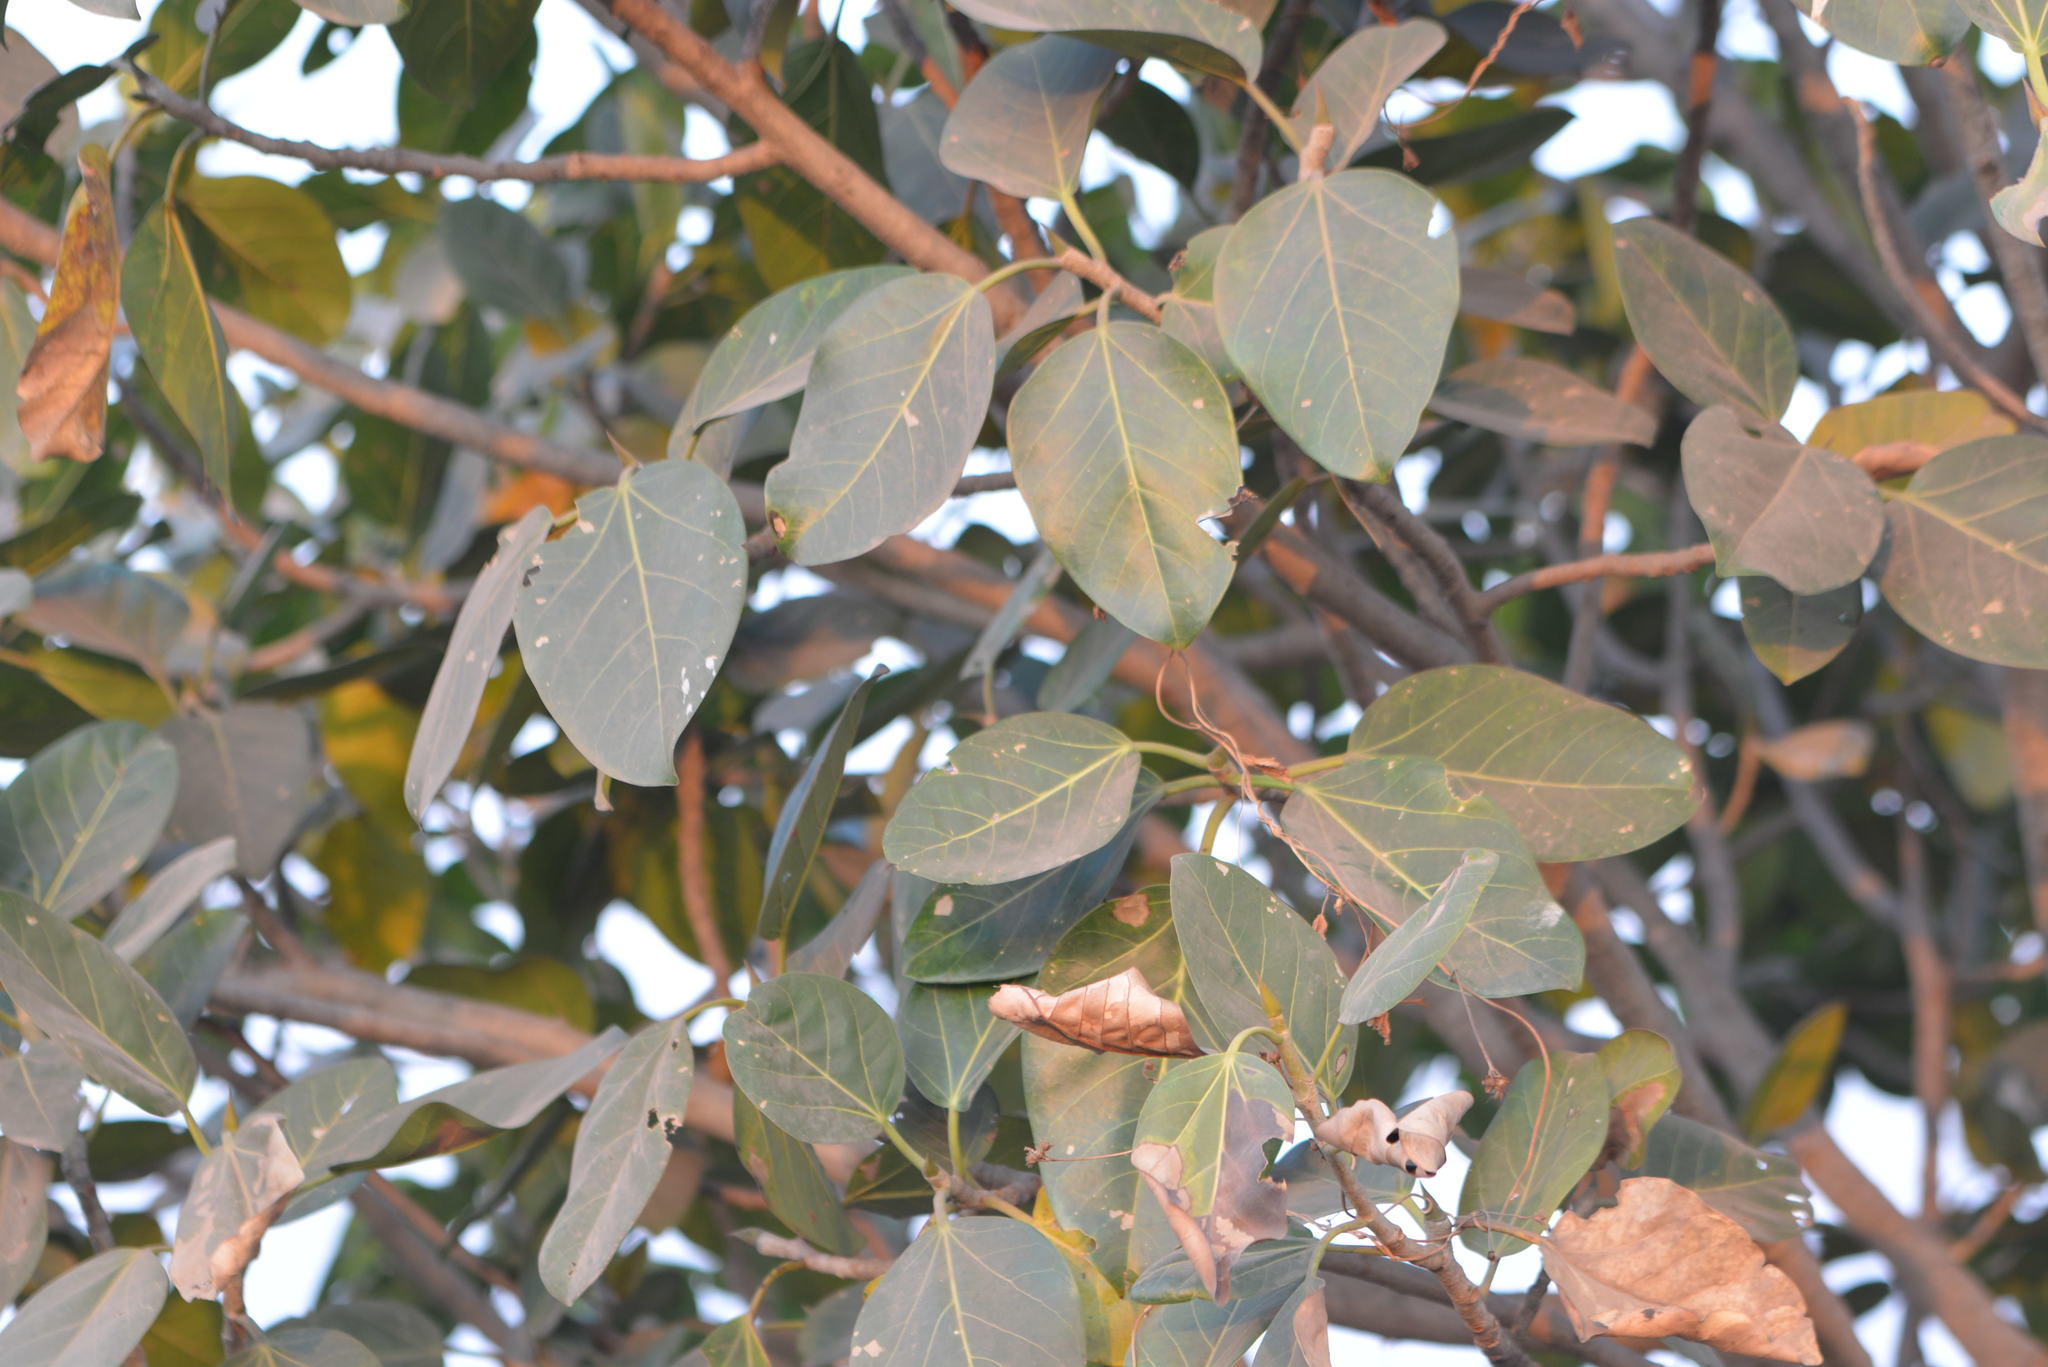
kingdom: Plantae
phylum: Tracheophyta
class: Magnoliopsida
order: Rosales
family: Moraceae
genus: Ficus
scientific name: Ficus benghalensis
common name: Indian banyan
